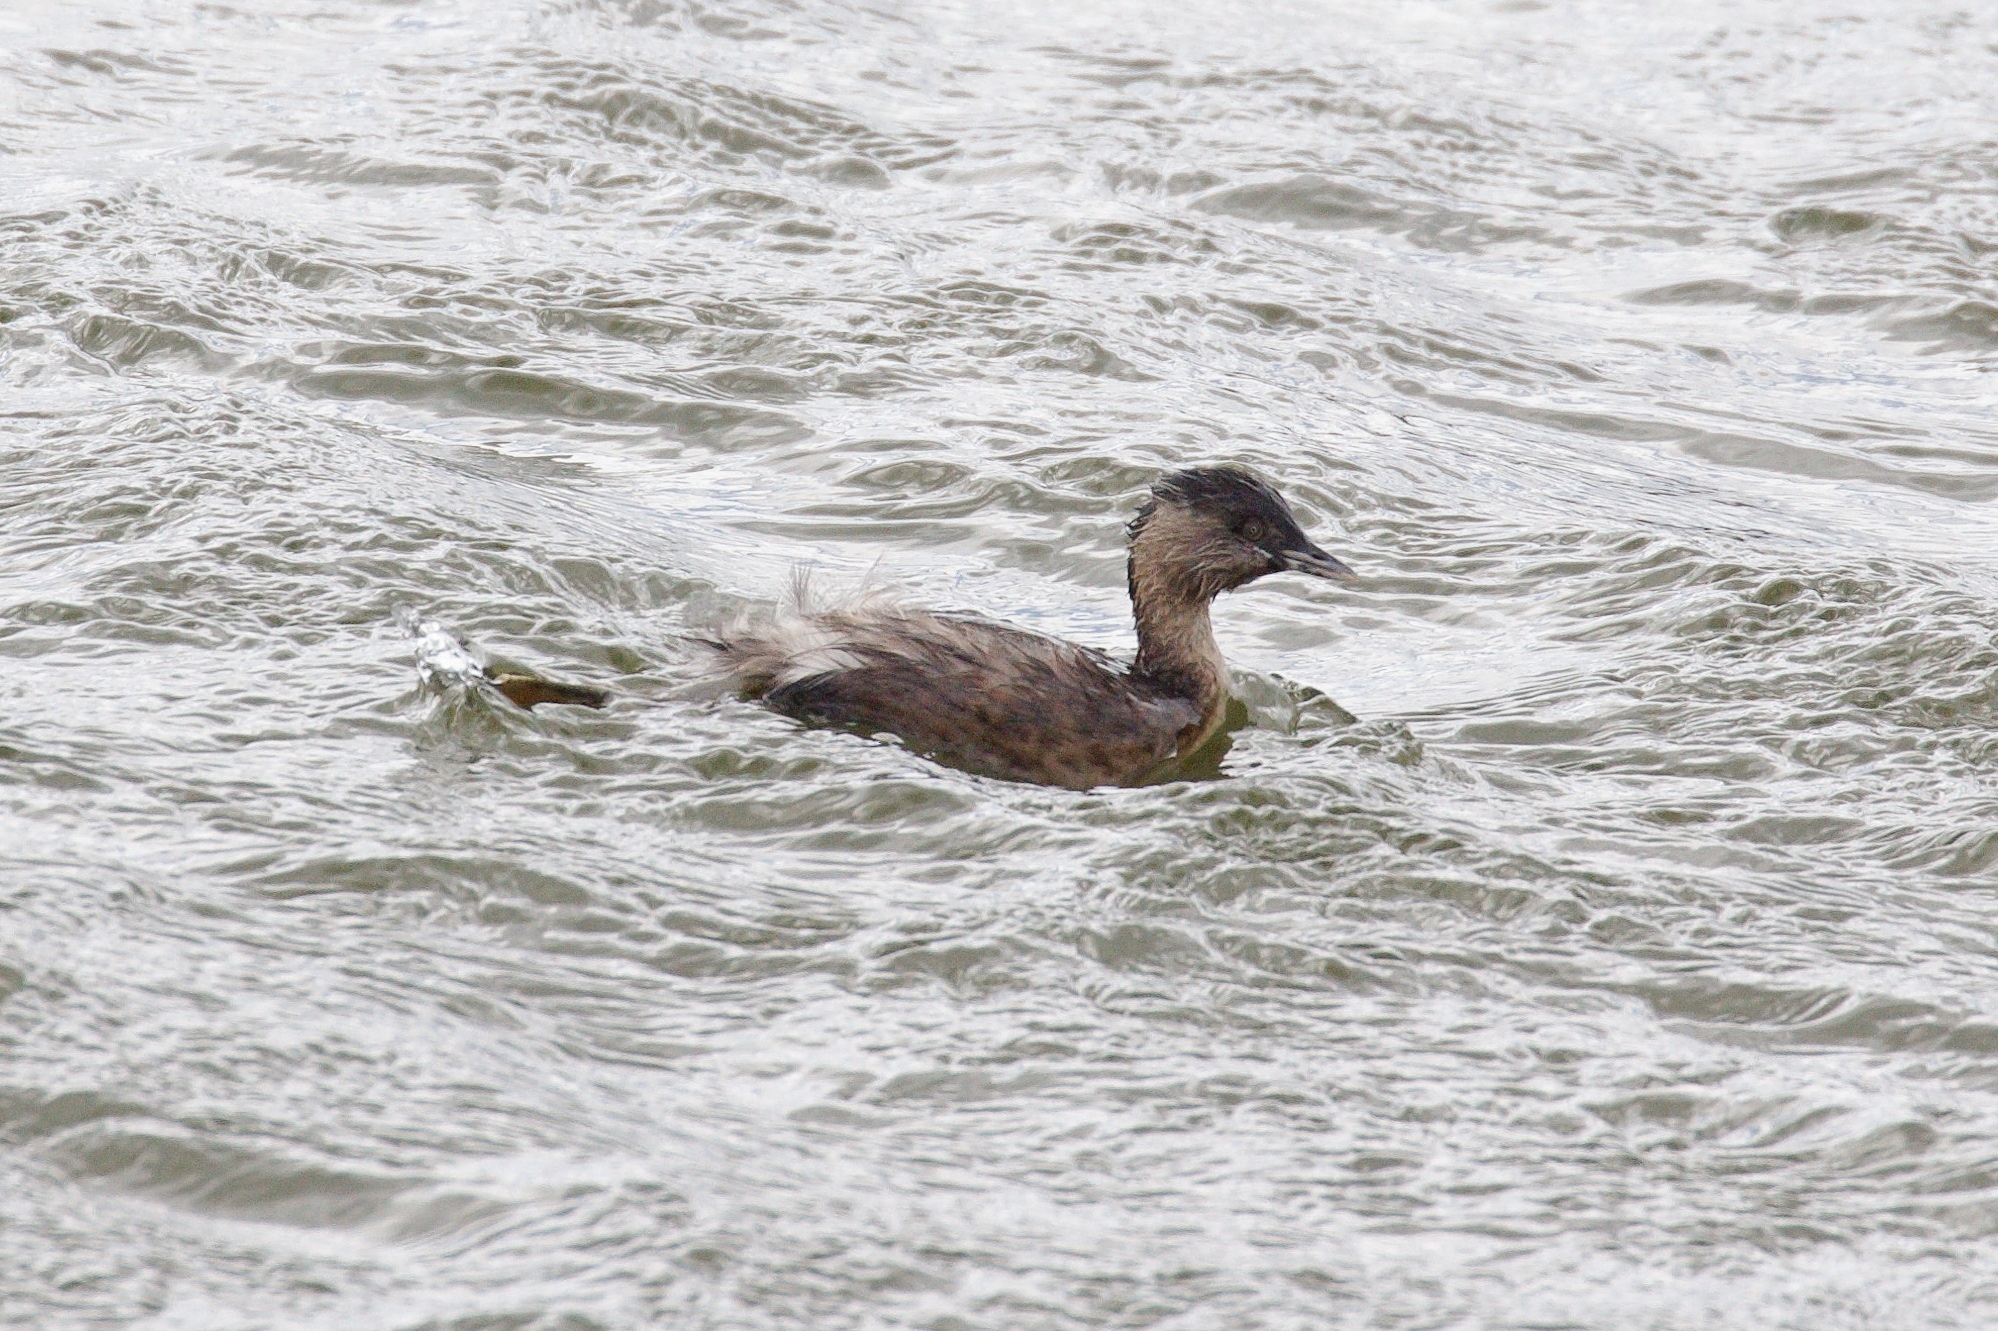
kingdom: Animalia
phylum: Chordata
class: Aves
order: Podicipediformes
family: Podicipedidae
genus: Poliocephalus
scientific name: Poliocephalus poliocephalus
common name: Hoary-headed grebe
